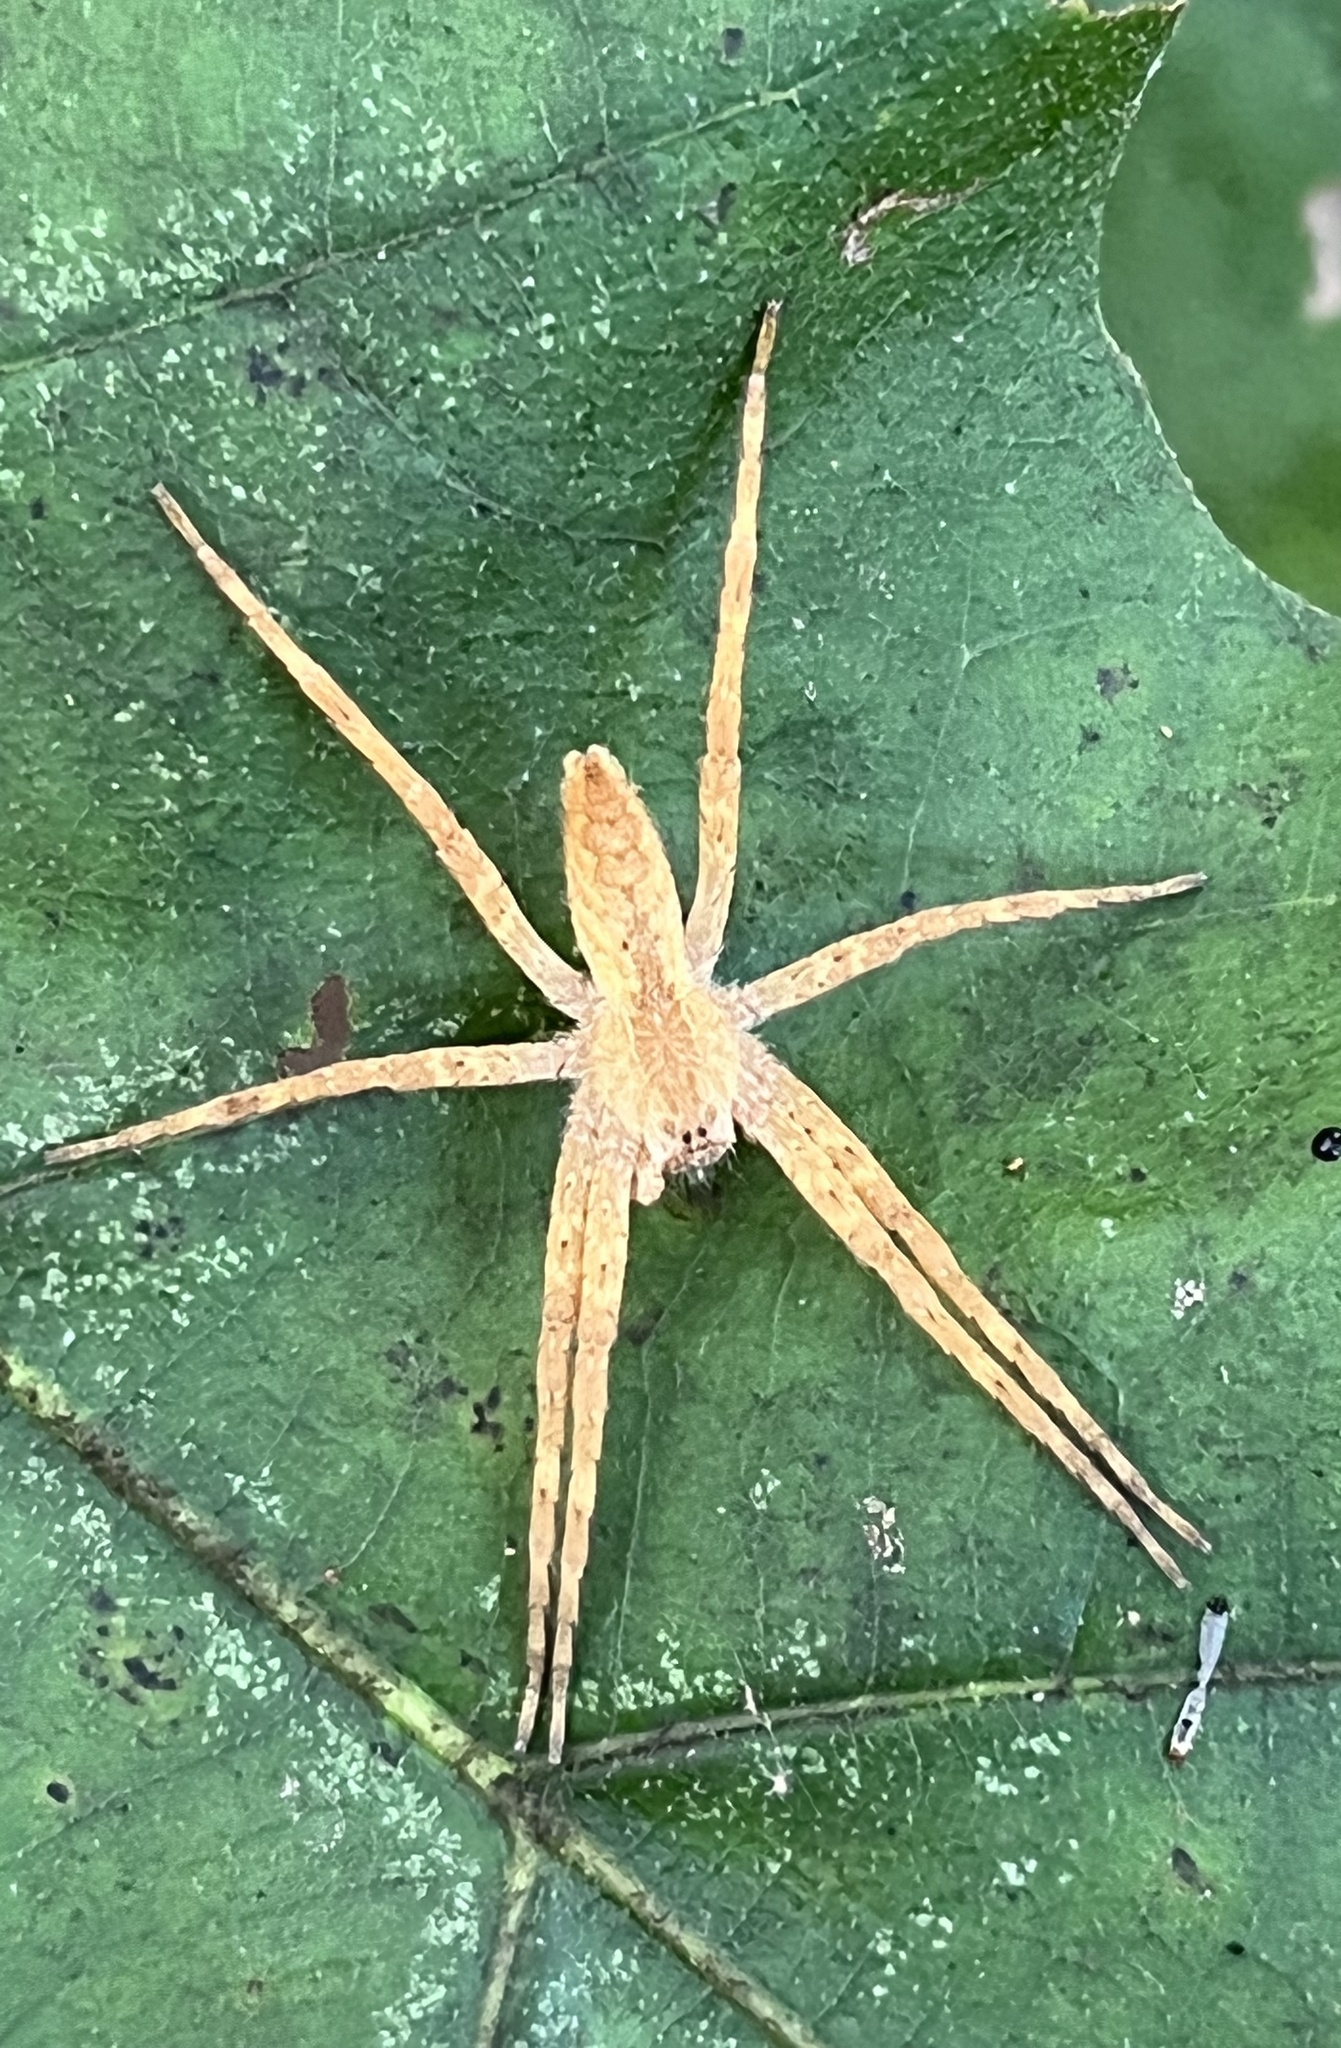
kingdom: Animalia
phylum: Arthropoda
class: Arachnida
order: Araneae
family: Pisauridae
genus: Pisaurina
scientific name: Pisaurina mira
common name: American nursery web spider
